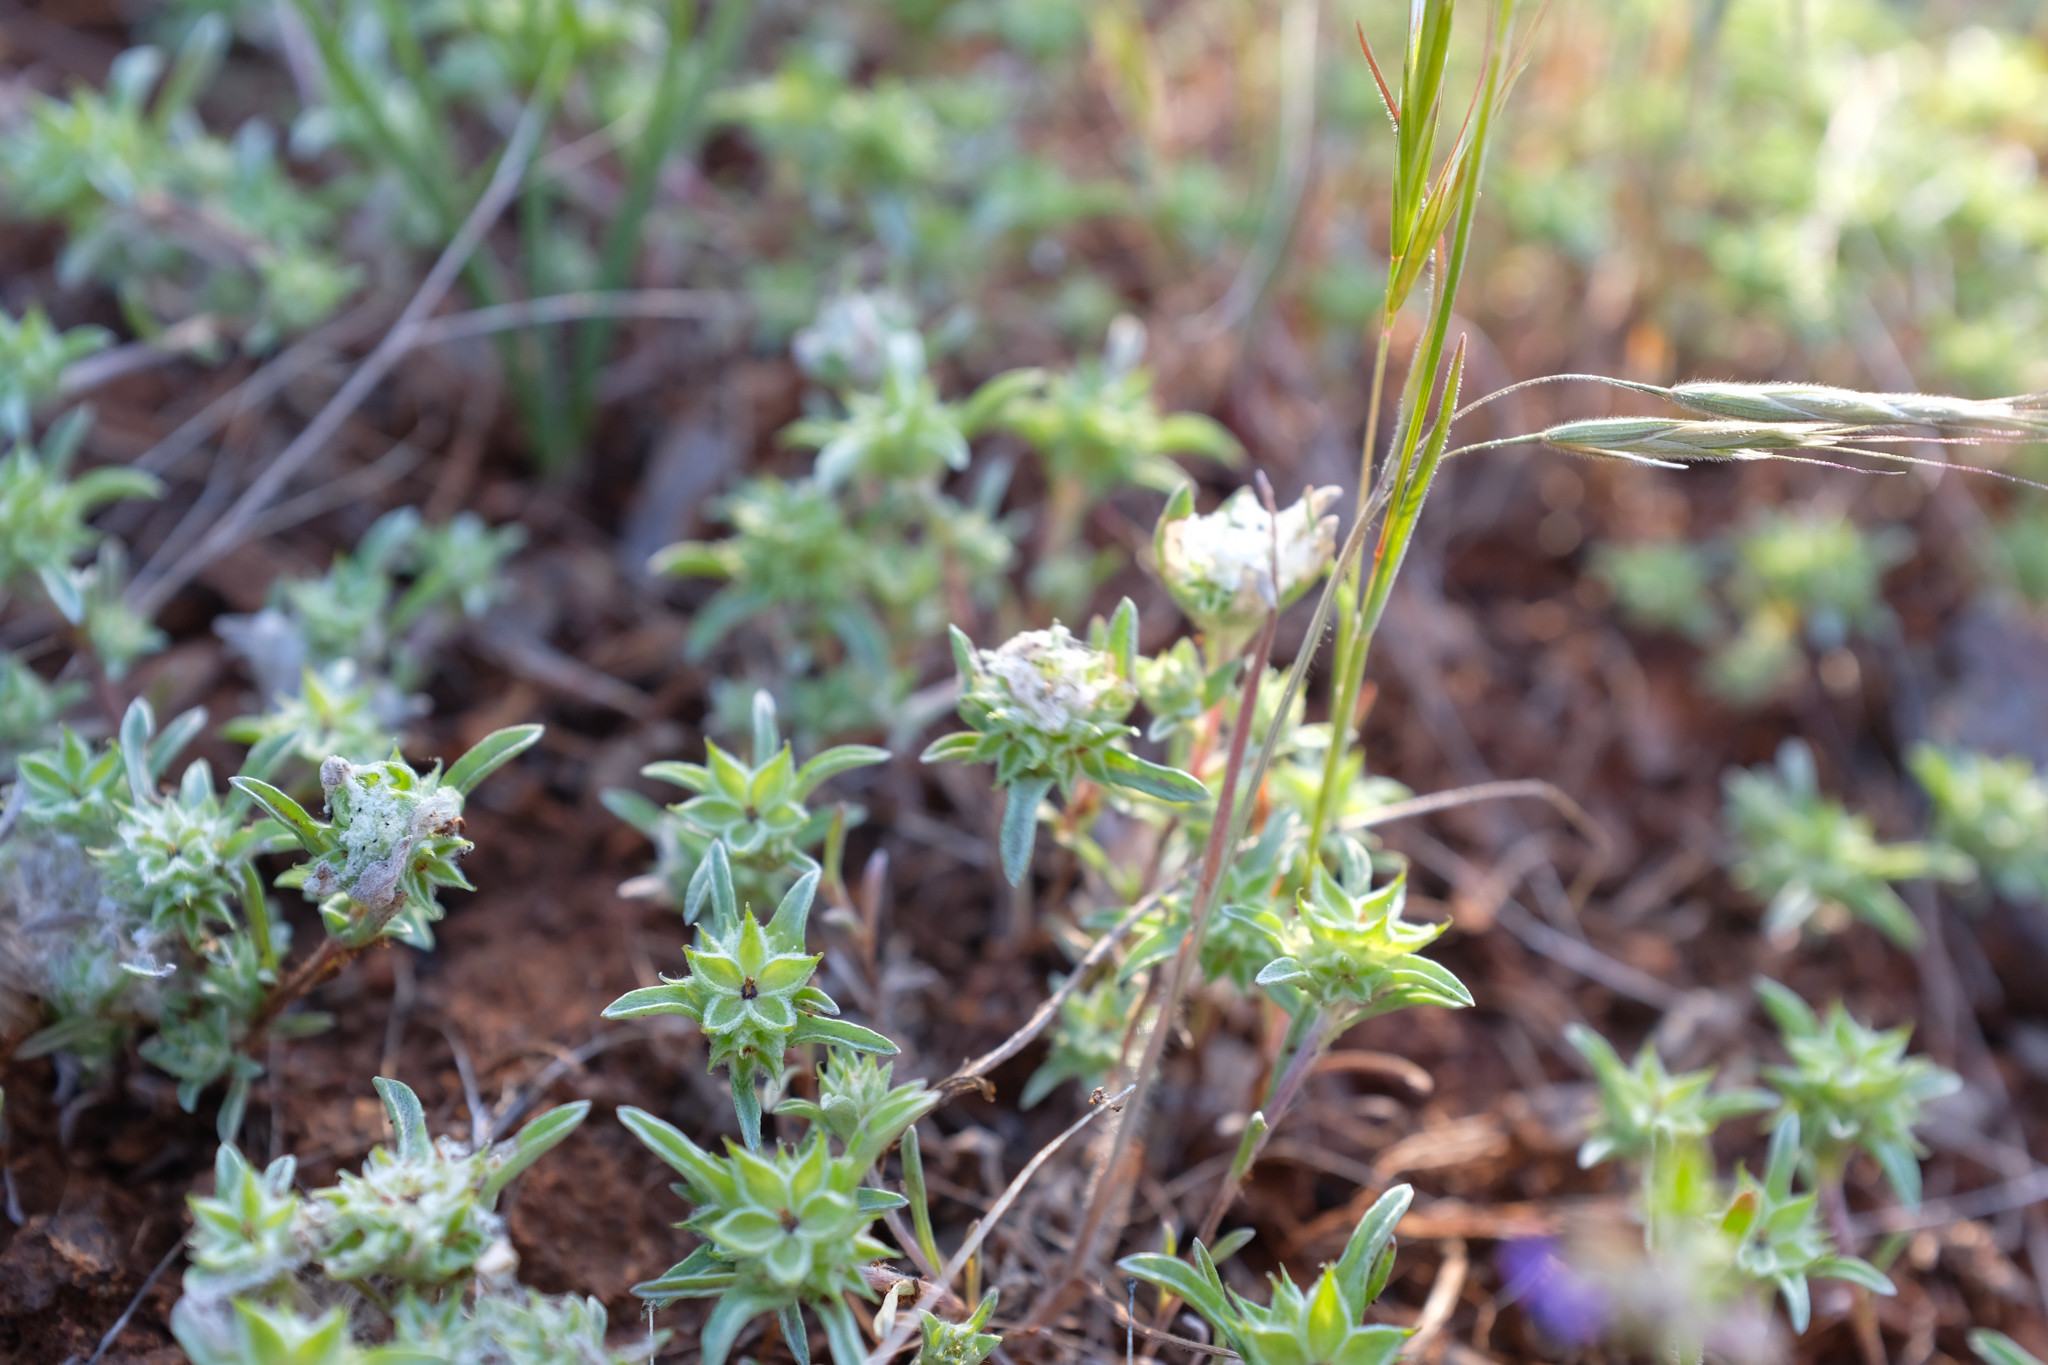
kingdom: Plantae
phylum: Tracheophyta
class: Magnoliopsida
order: Asterales
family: Asteraceae
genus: Ancistrocarphus
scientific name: Ancistrocarphus filagineus
